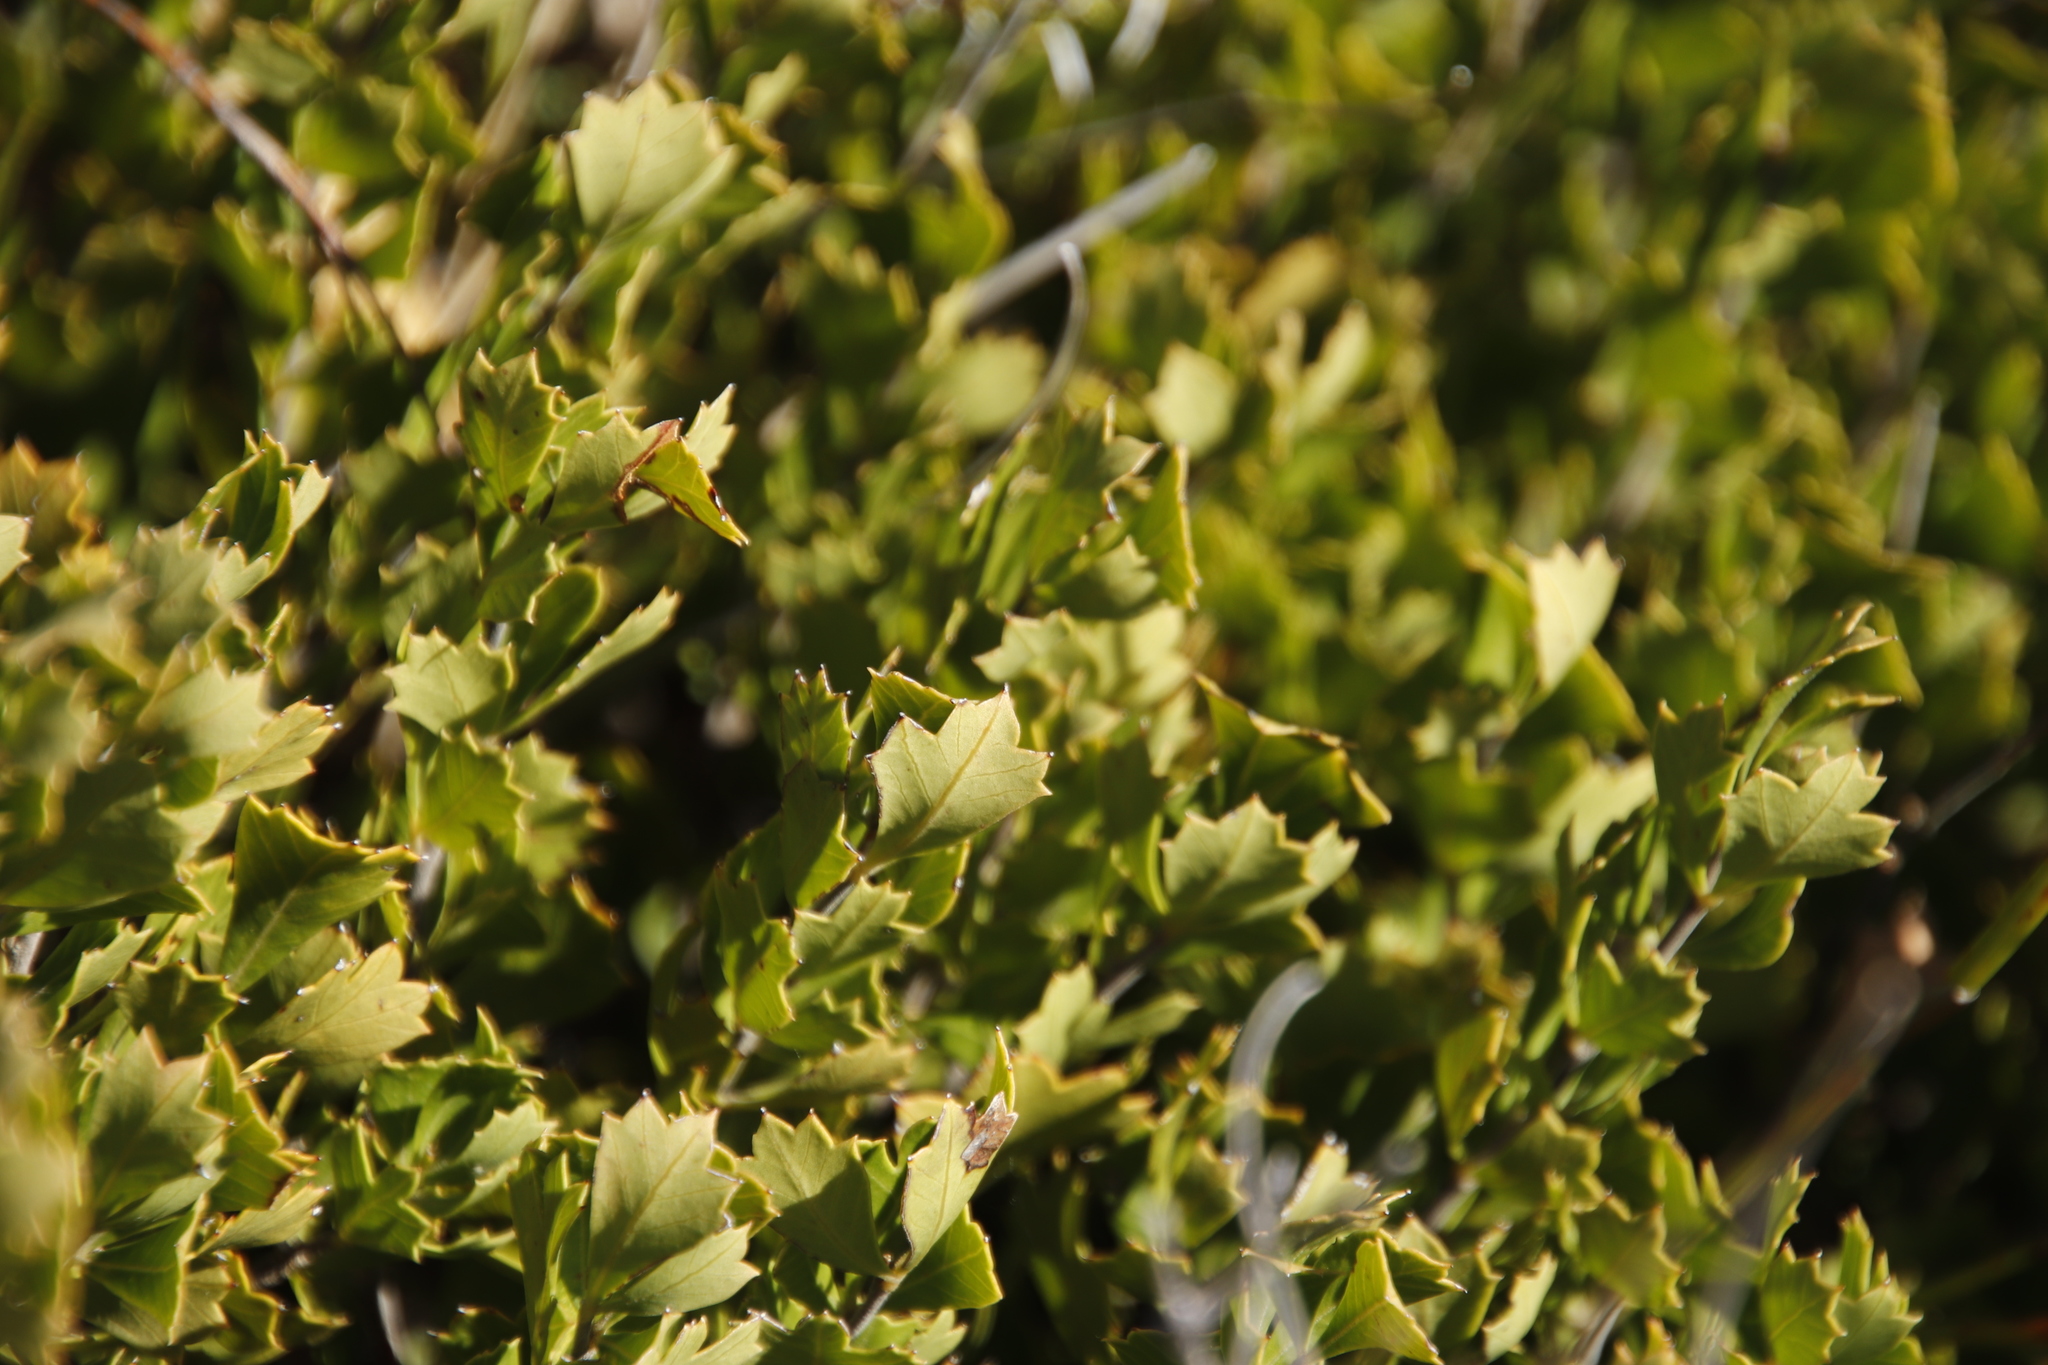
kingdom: Plantae
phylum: Tracheophyta
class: Magnoliopsida
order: Sapindales
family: Anacardiaceae
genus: Searsia
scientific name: Searsia cuneifolia
